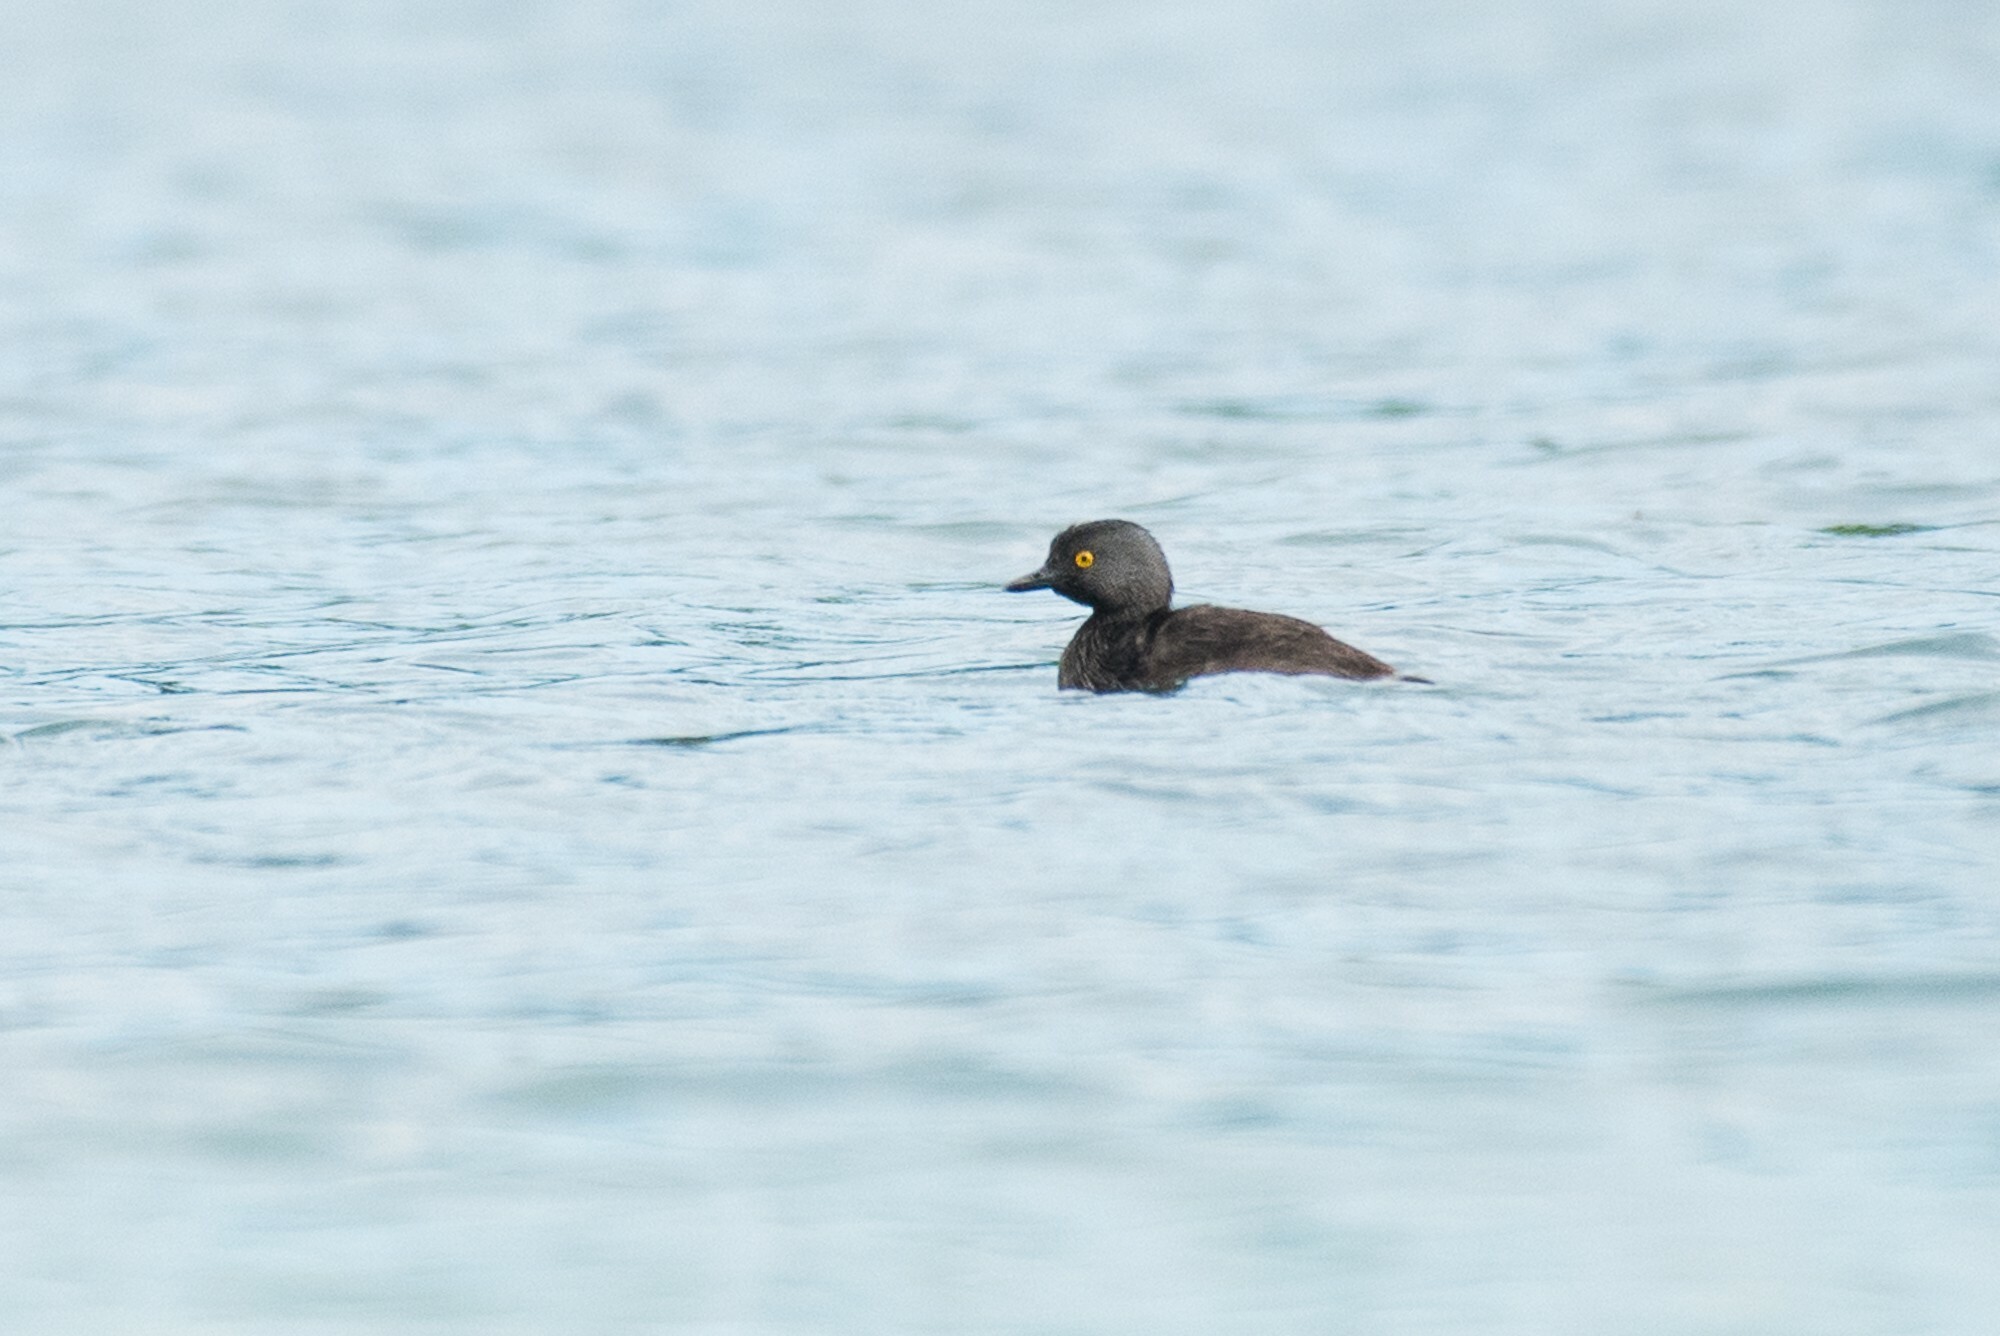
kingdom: Animalia
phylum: Chordata
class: Aves
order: Podicipediformes
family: Podicipedidae
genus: Tachybaptus
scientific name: Tachybaptus dominicus
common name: Least grebe
